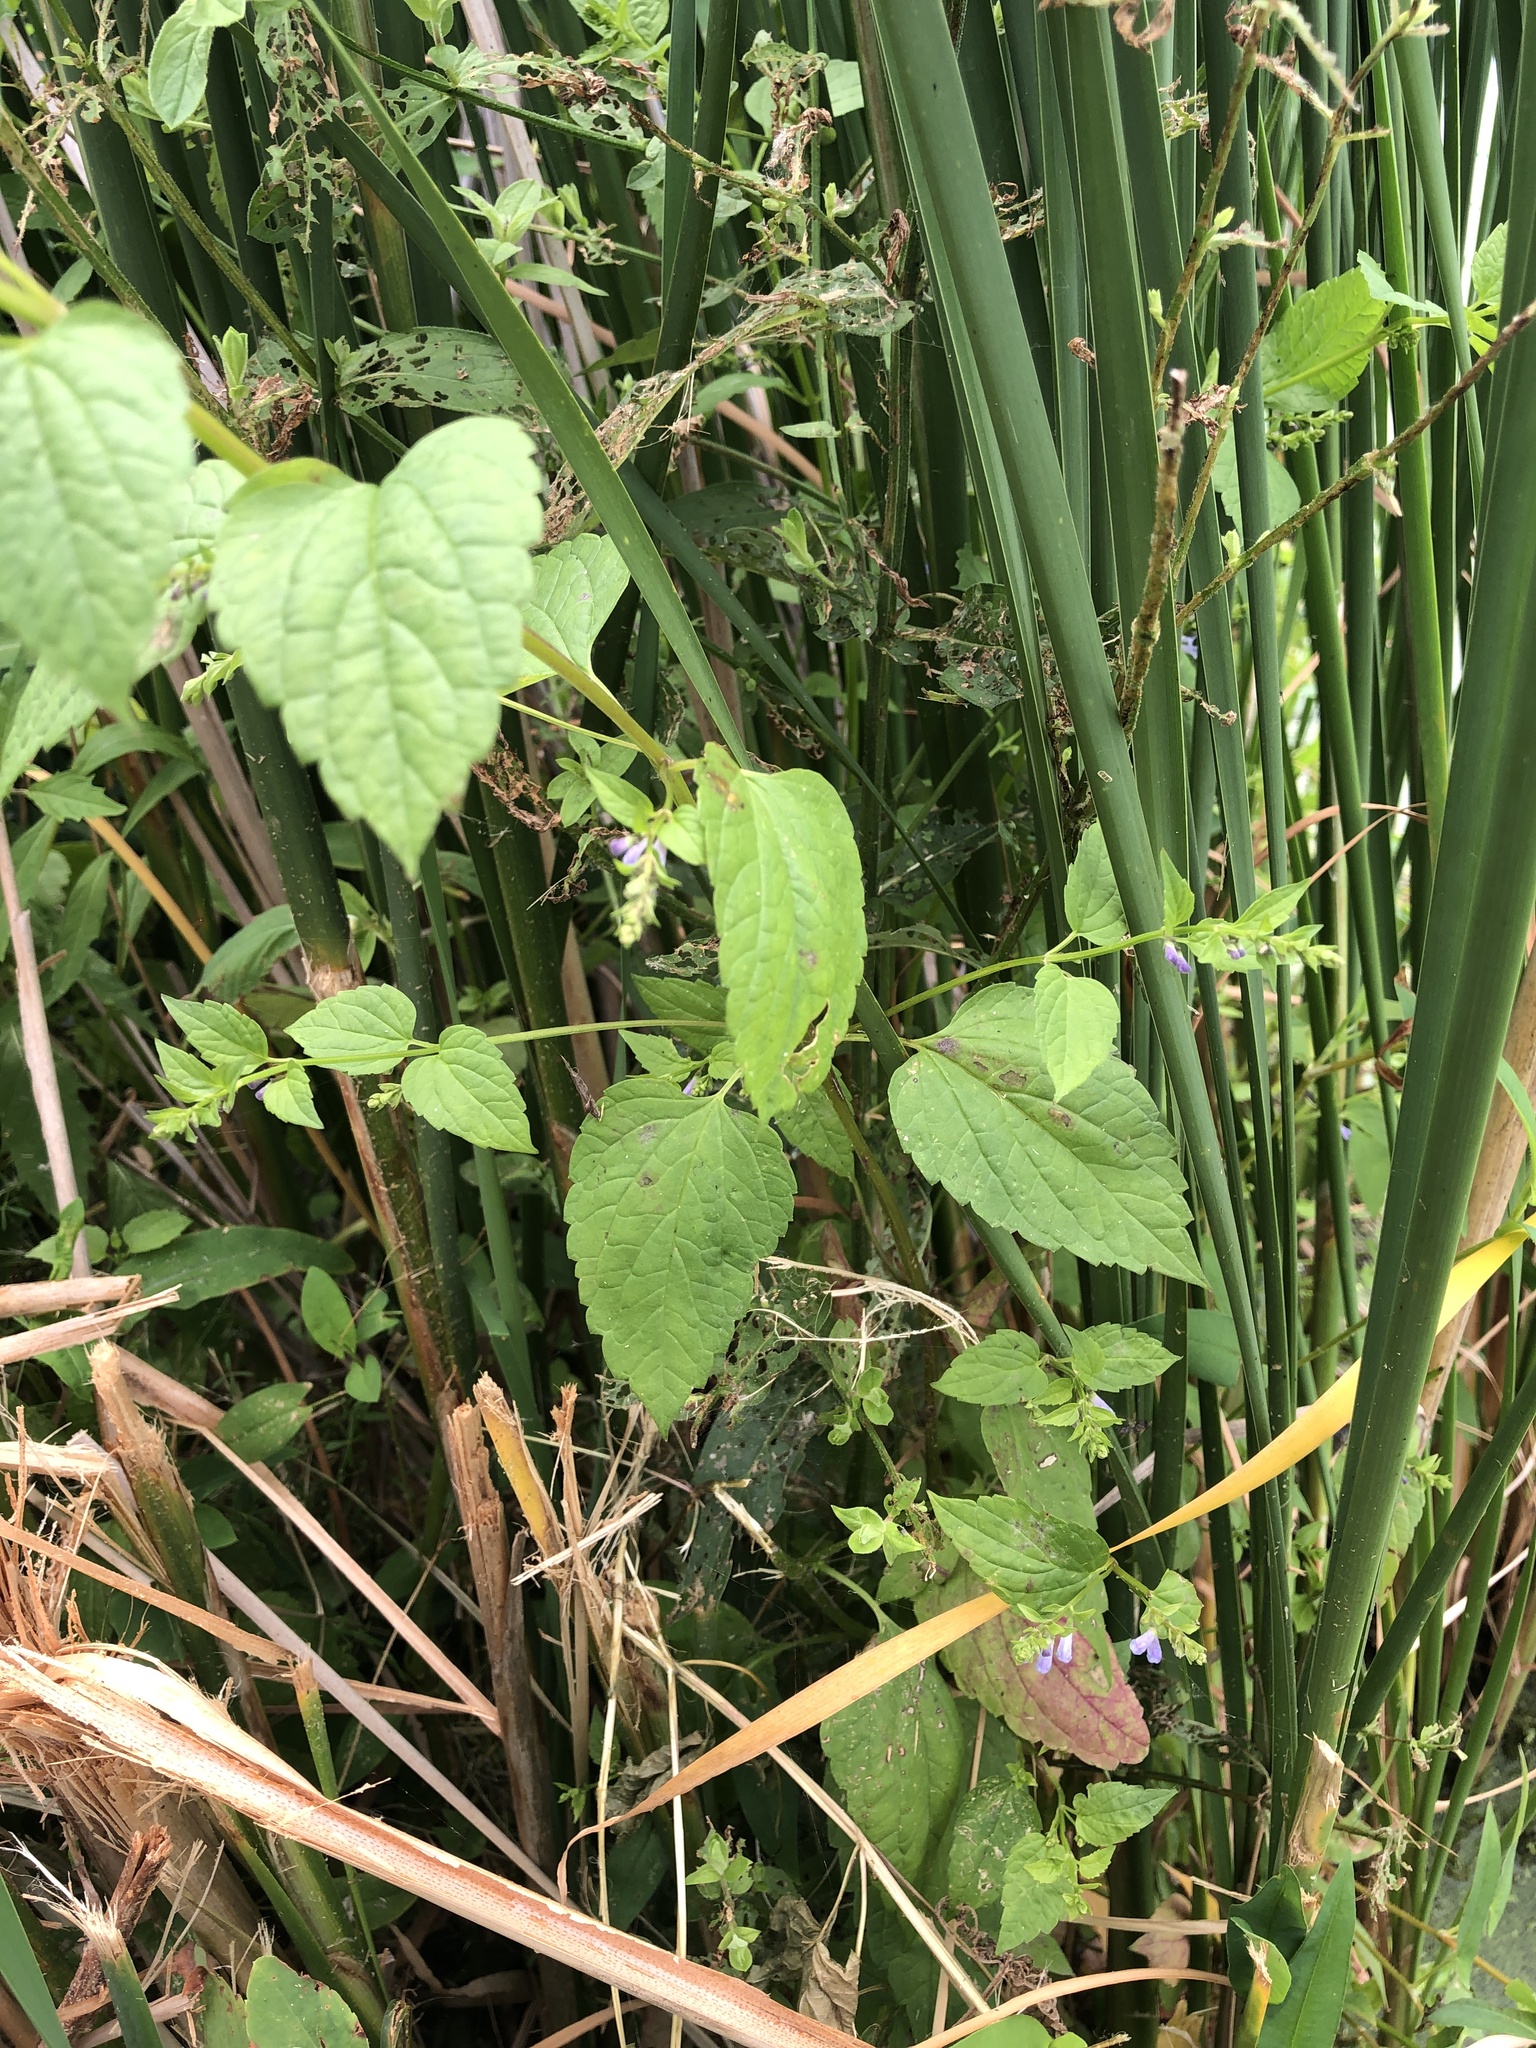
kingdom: Plantae
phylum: Tracheophyta
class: Magnoliopsida
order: Lamiales
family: Lamiaceae
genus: Scutellaria
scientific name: Scutellaria lateriflora
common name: Blue skullcap
